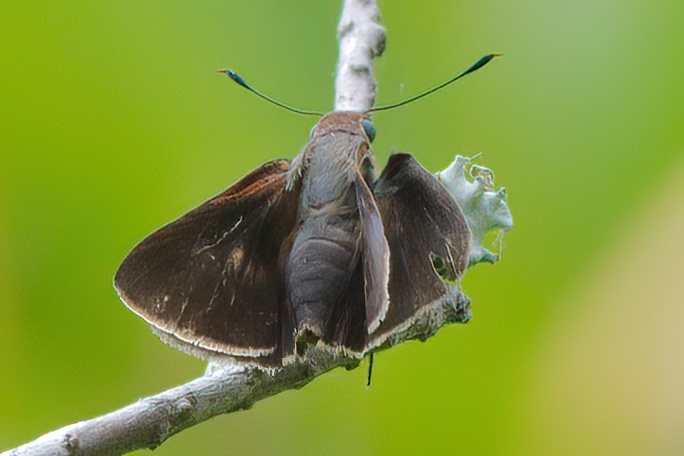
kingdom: Animalia
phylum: Arthropoda
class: Insecta
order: Lepidoptera
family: Hesperiidae
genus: Asbolis
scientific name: Asbolis capucinus
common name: Monk skipper
